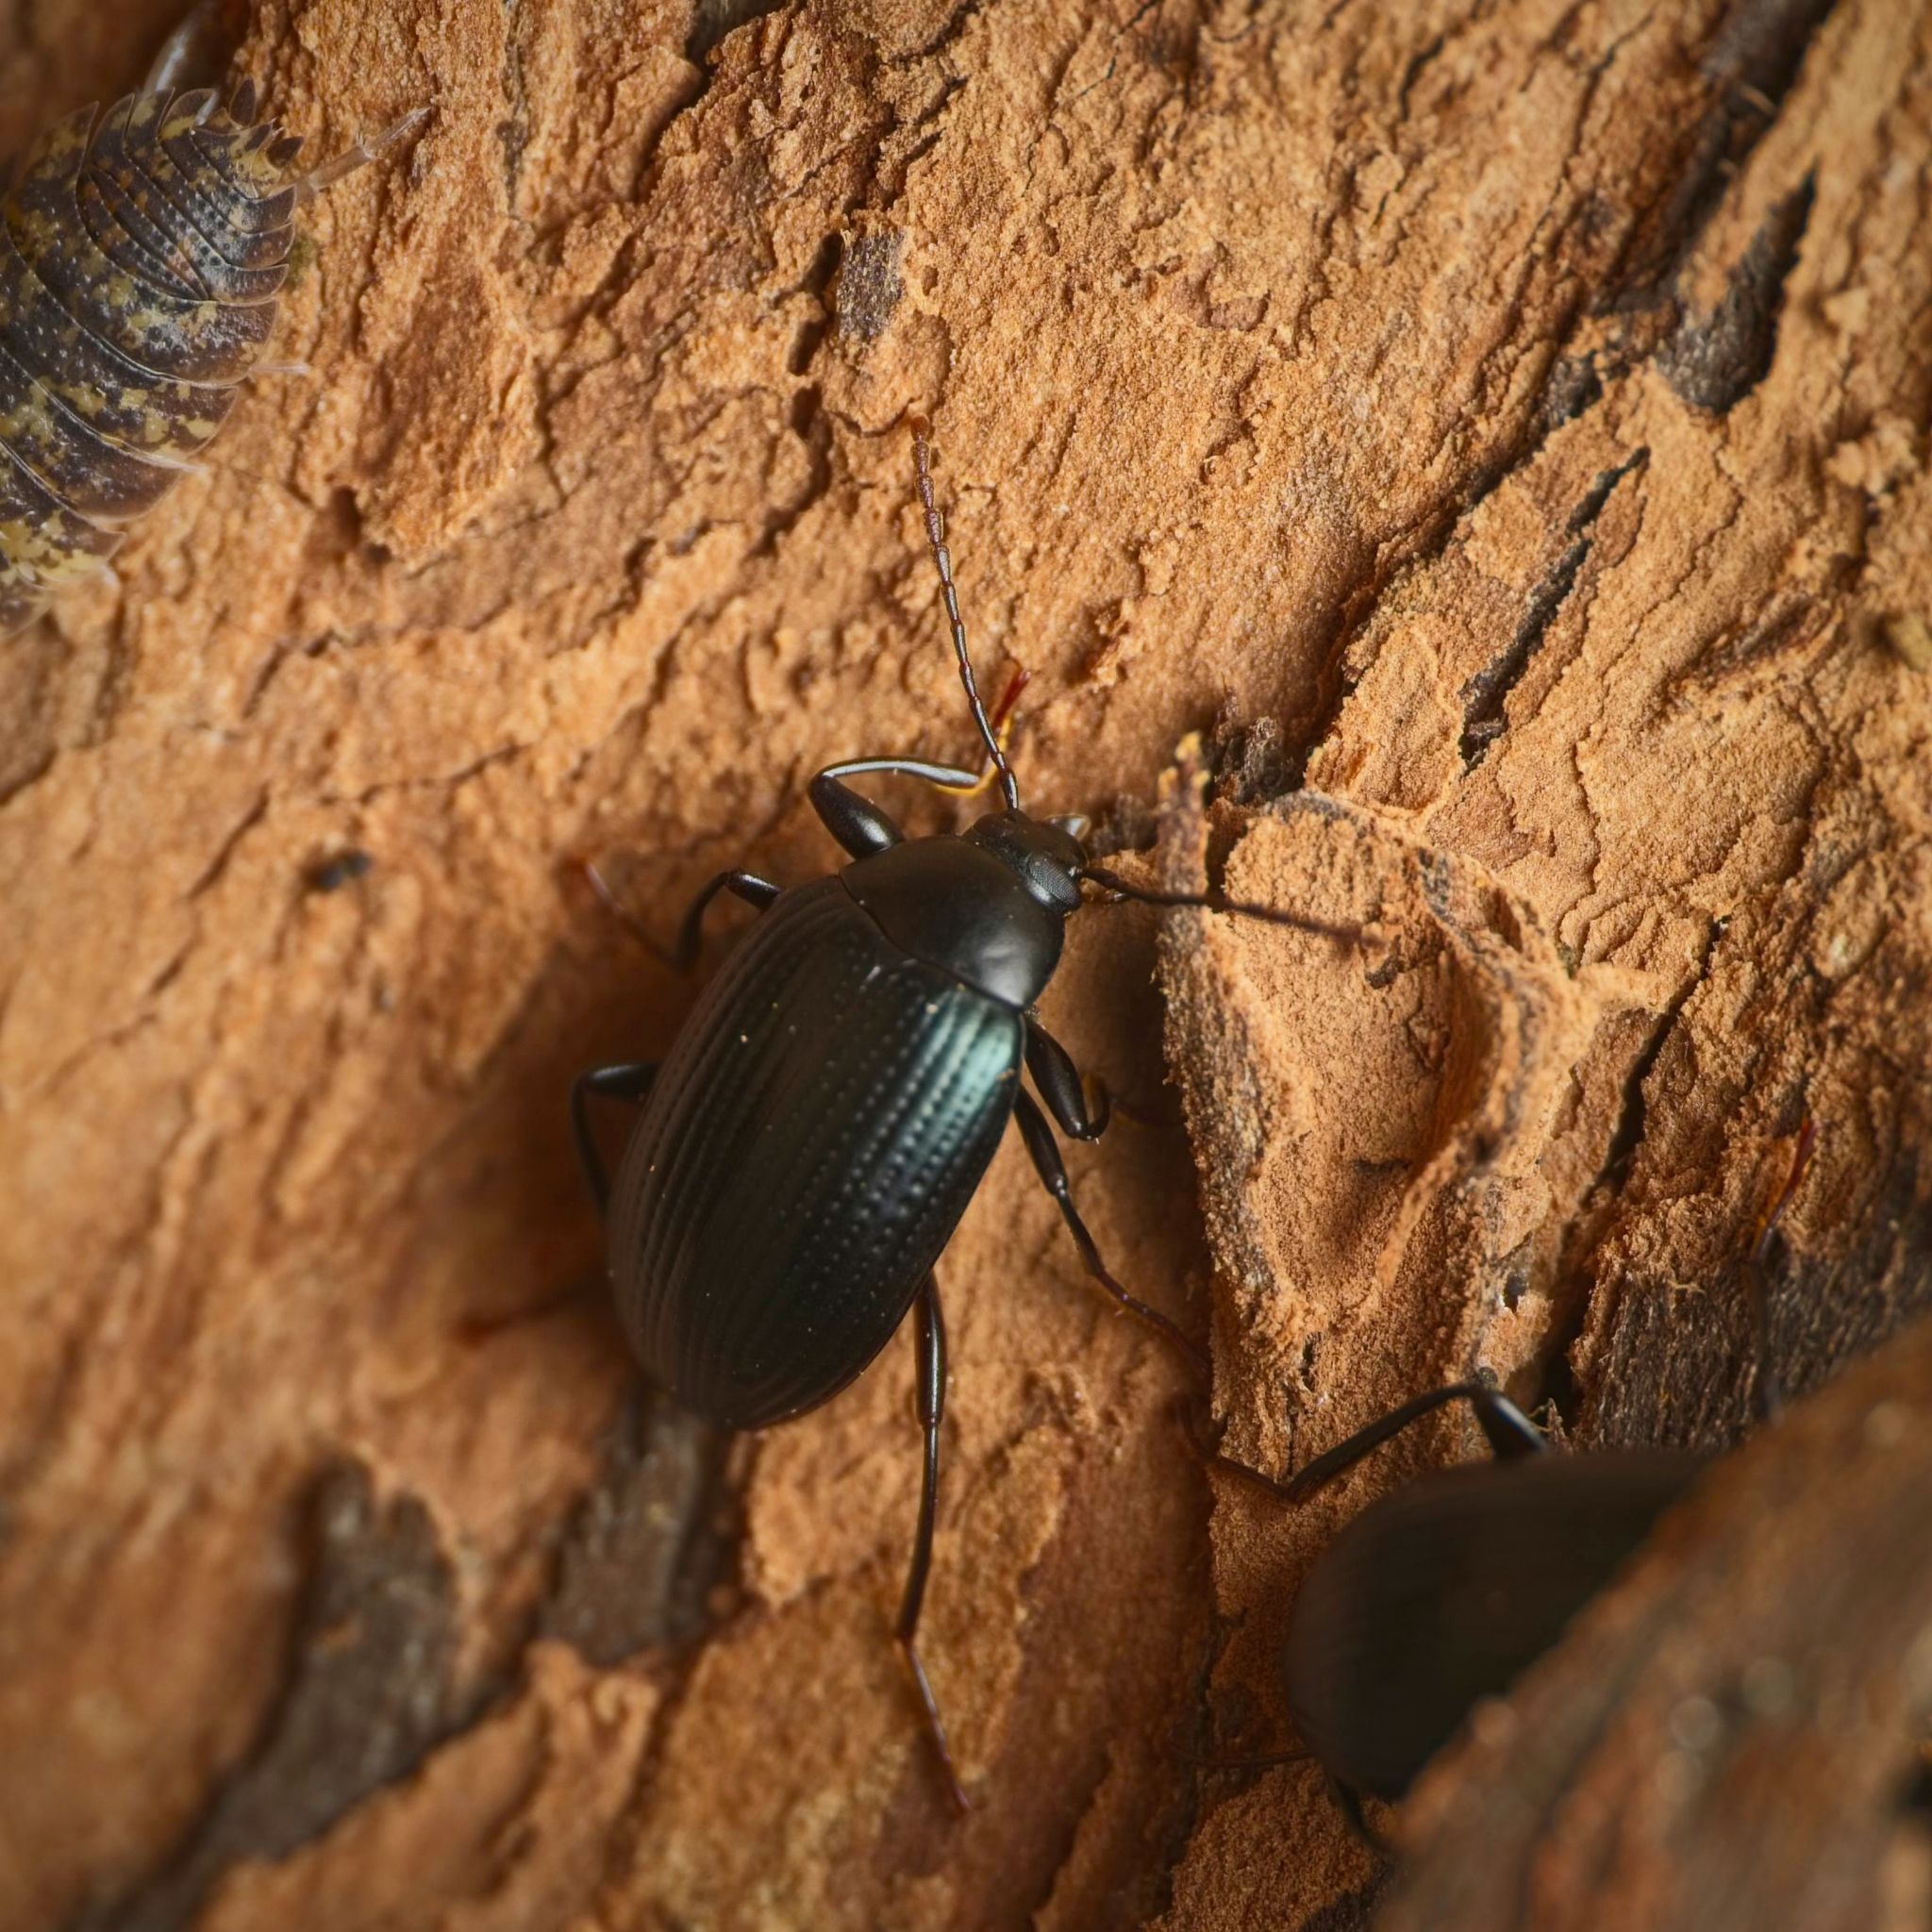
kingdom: Animalia
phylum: Arthropoda
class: Insecta
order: Coleoptera
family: Tenebrionidae
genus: Amarygmus
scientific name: Amarygmus
